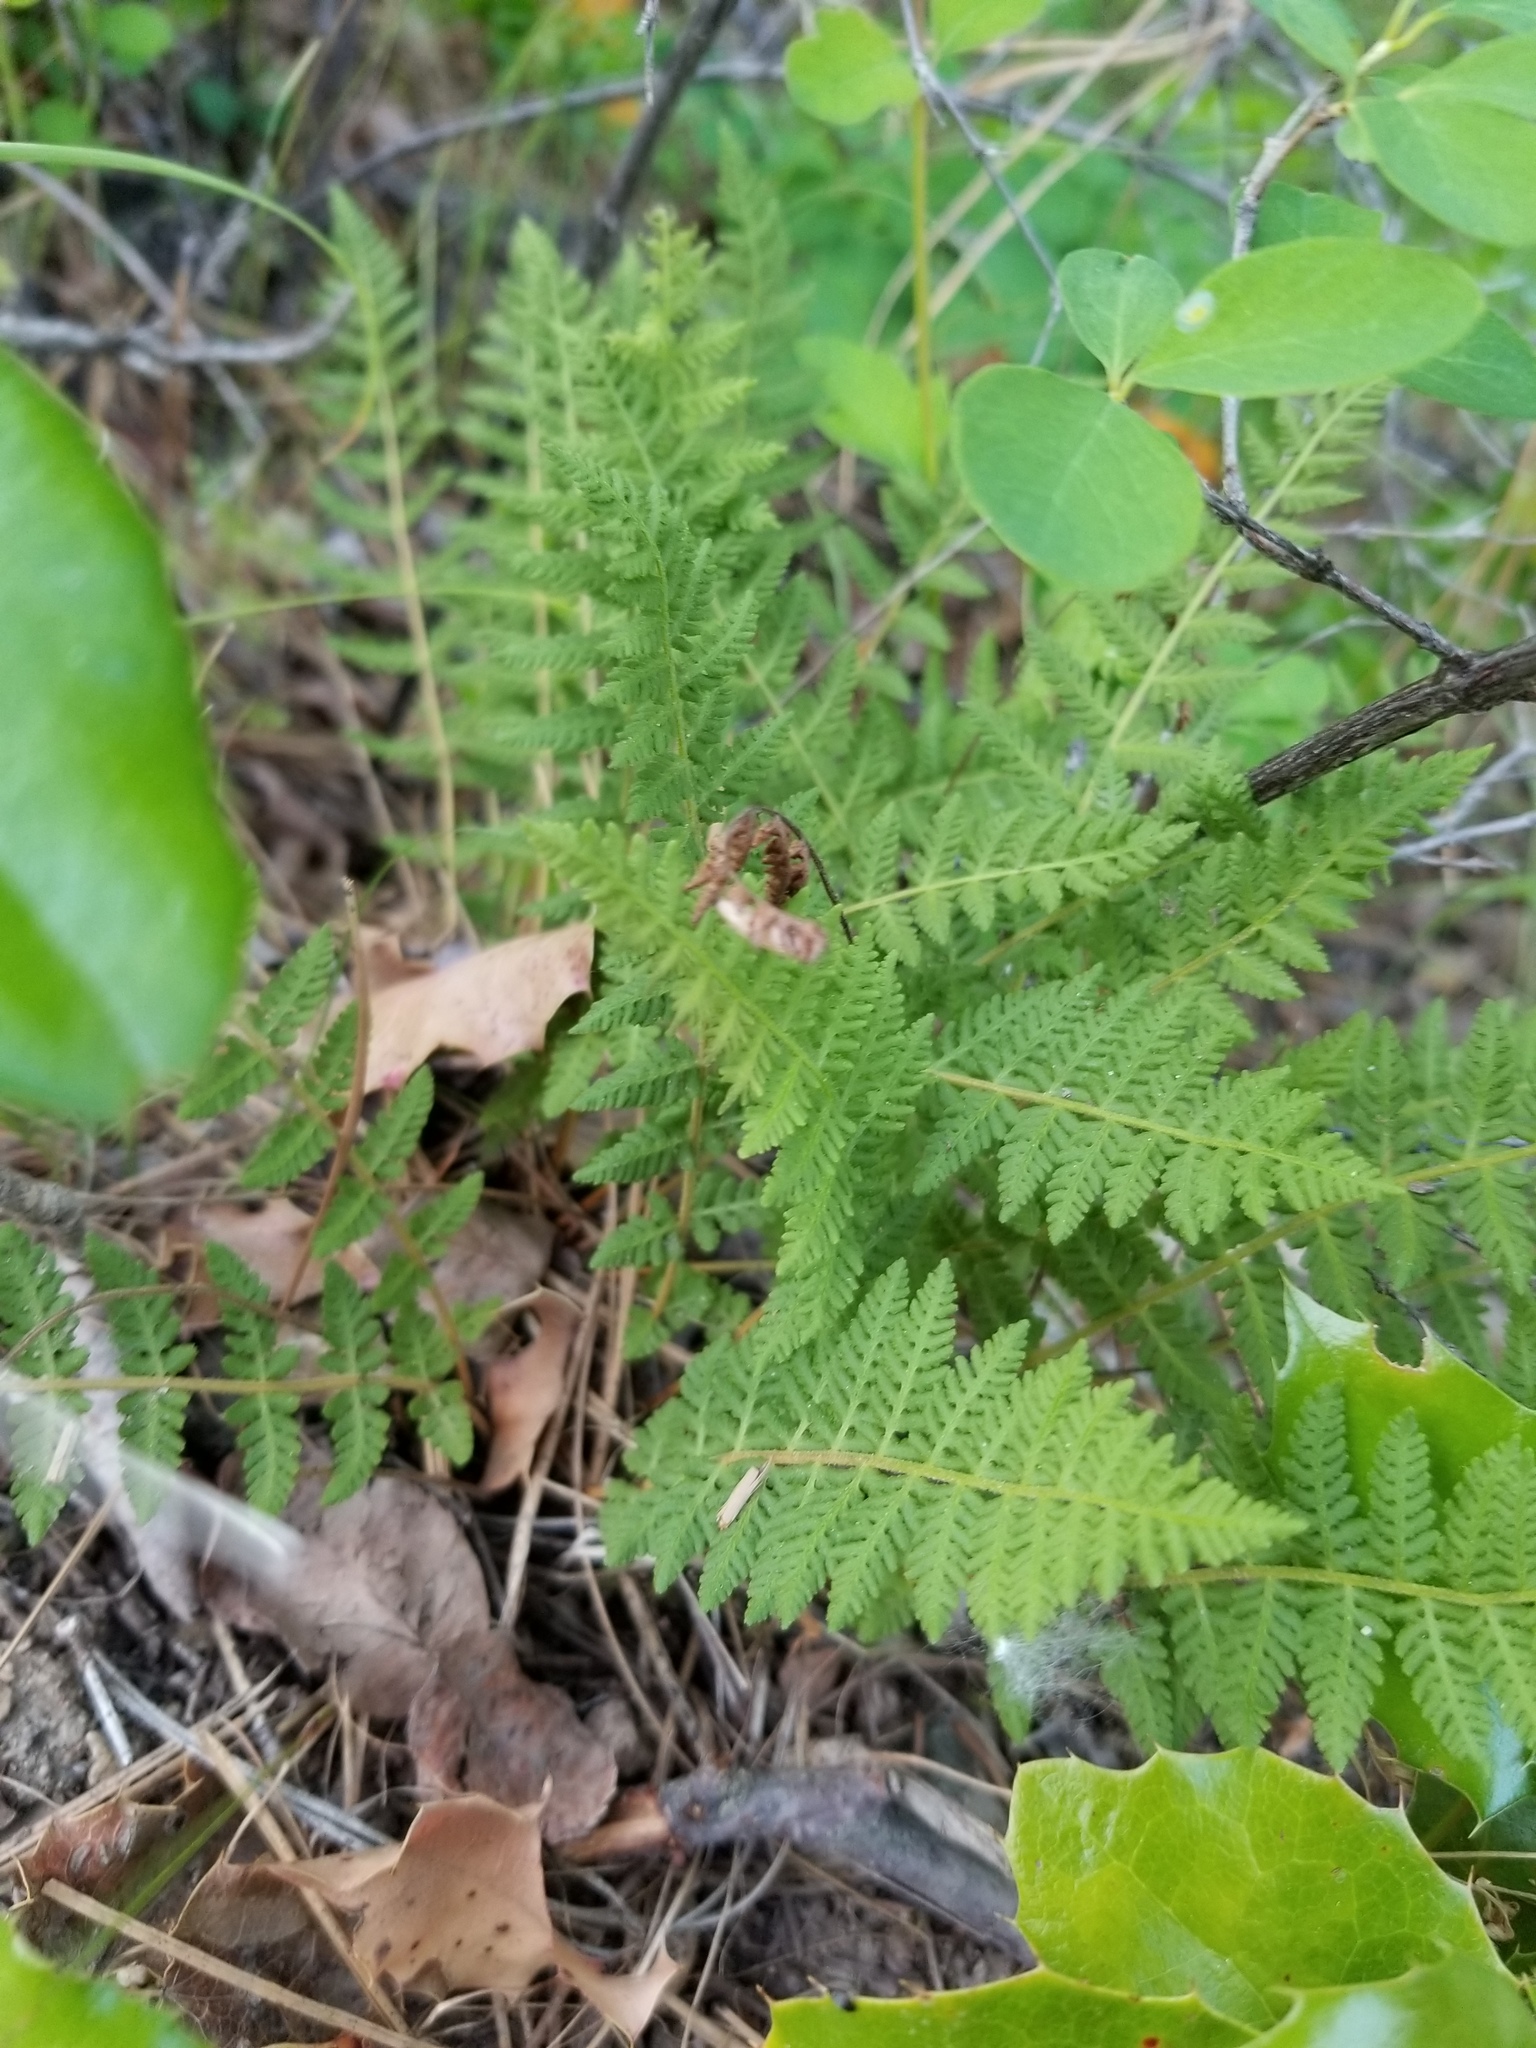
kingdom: Plantae
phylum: Tracheophyta
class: Polypodiopsida
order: Polypodiales
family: Woodsiaceae
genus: Physematium
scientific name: Physematium scopulinum
